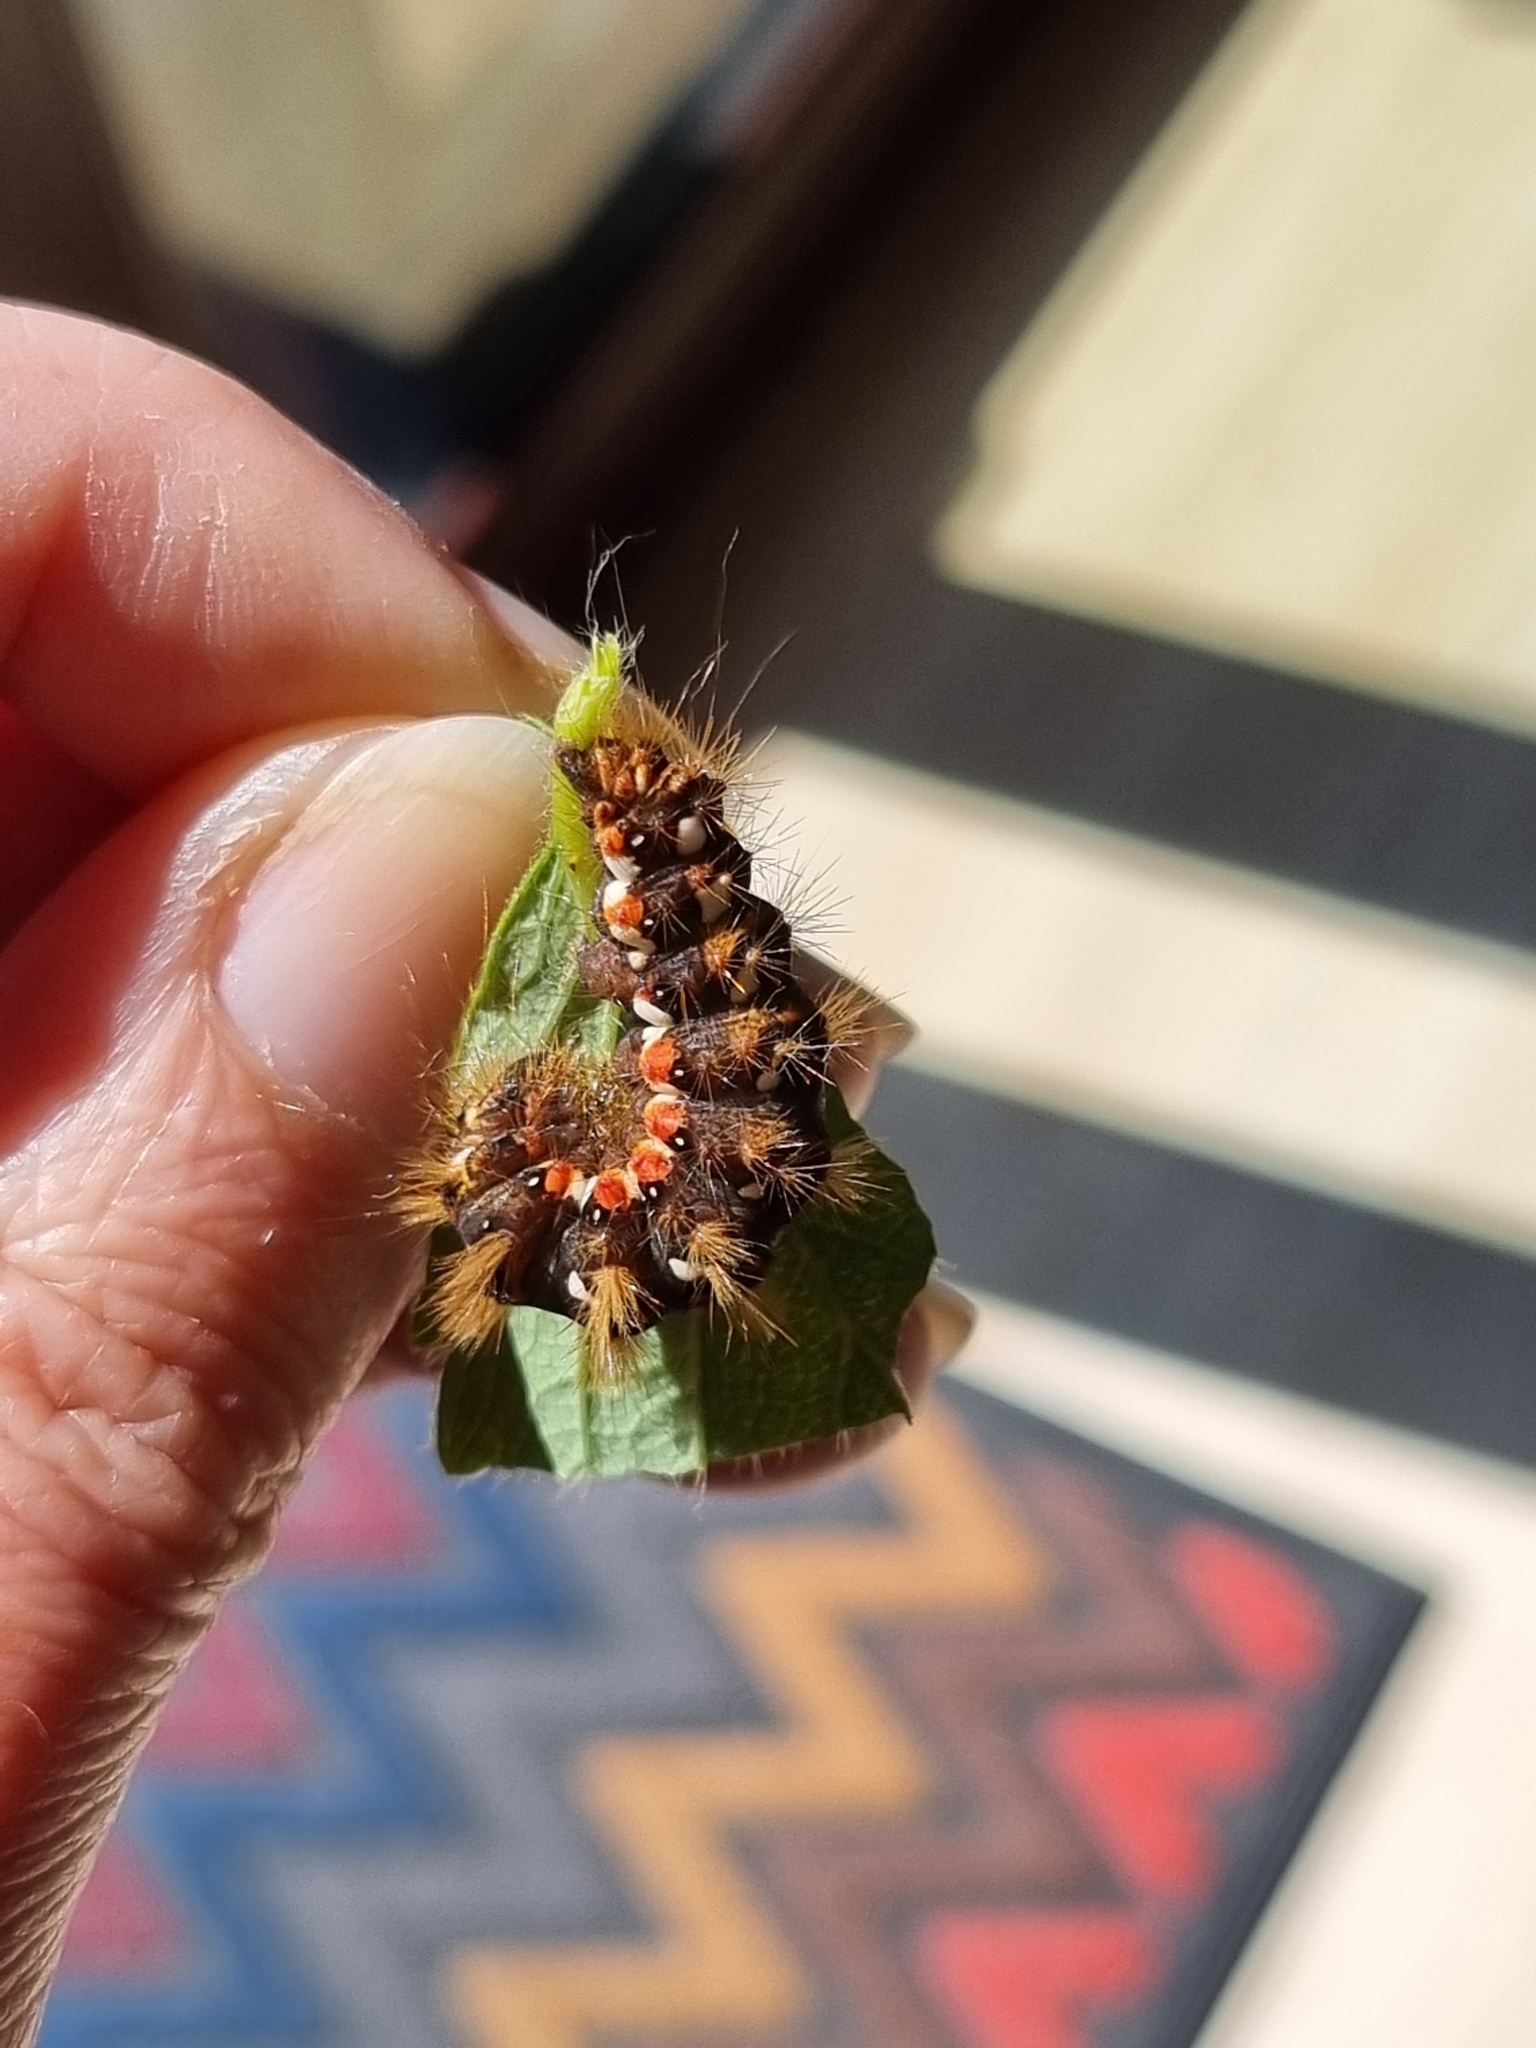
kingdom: Animalia
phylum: Arthropoda
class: Insecta
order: Lepidoptera
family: Noctuidae
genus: Acronicta
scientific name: Acronicta rumicis
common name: Knot grass
